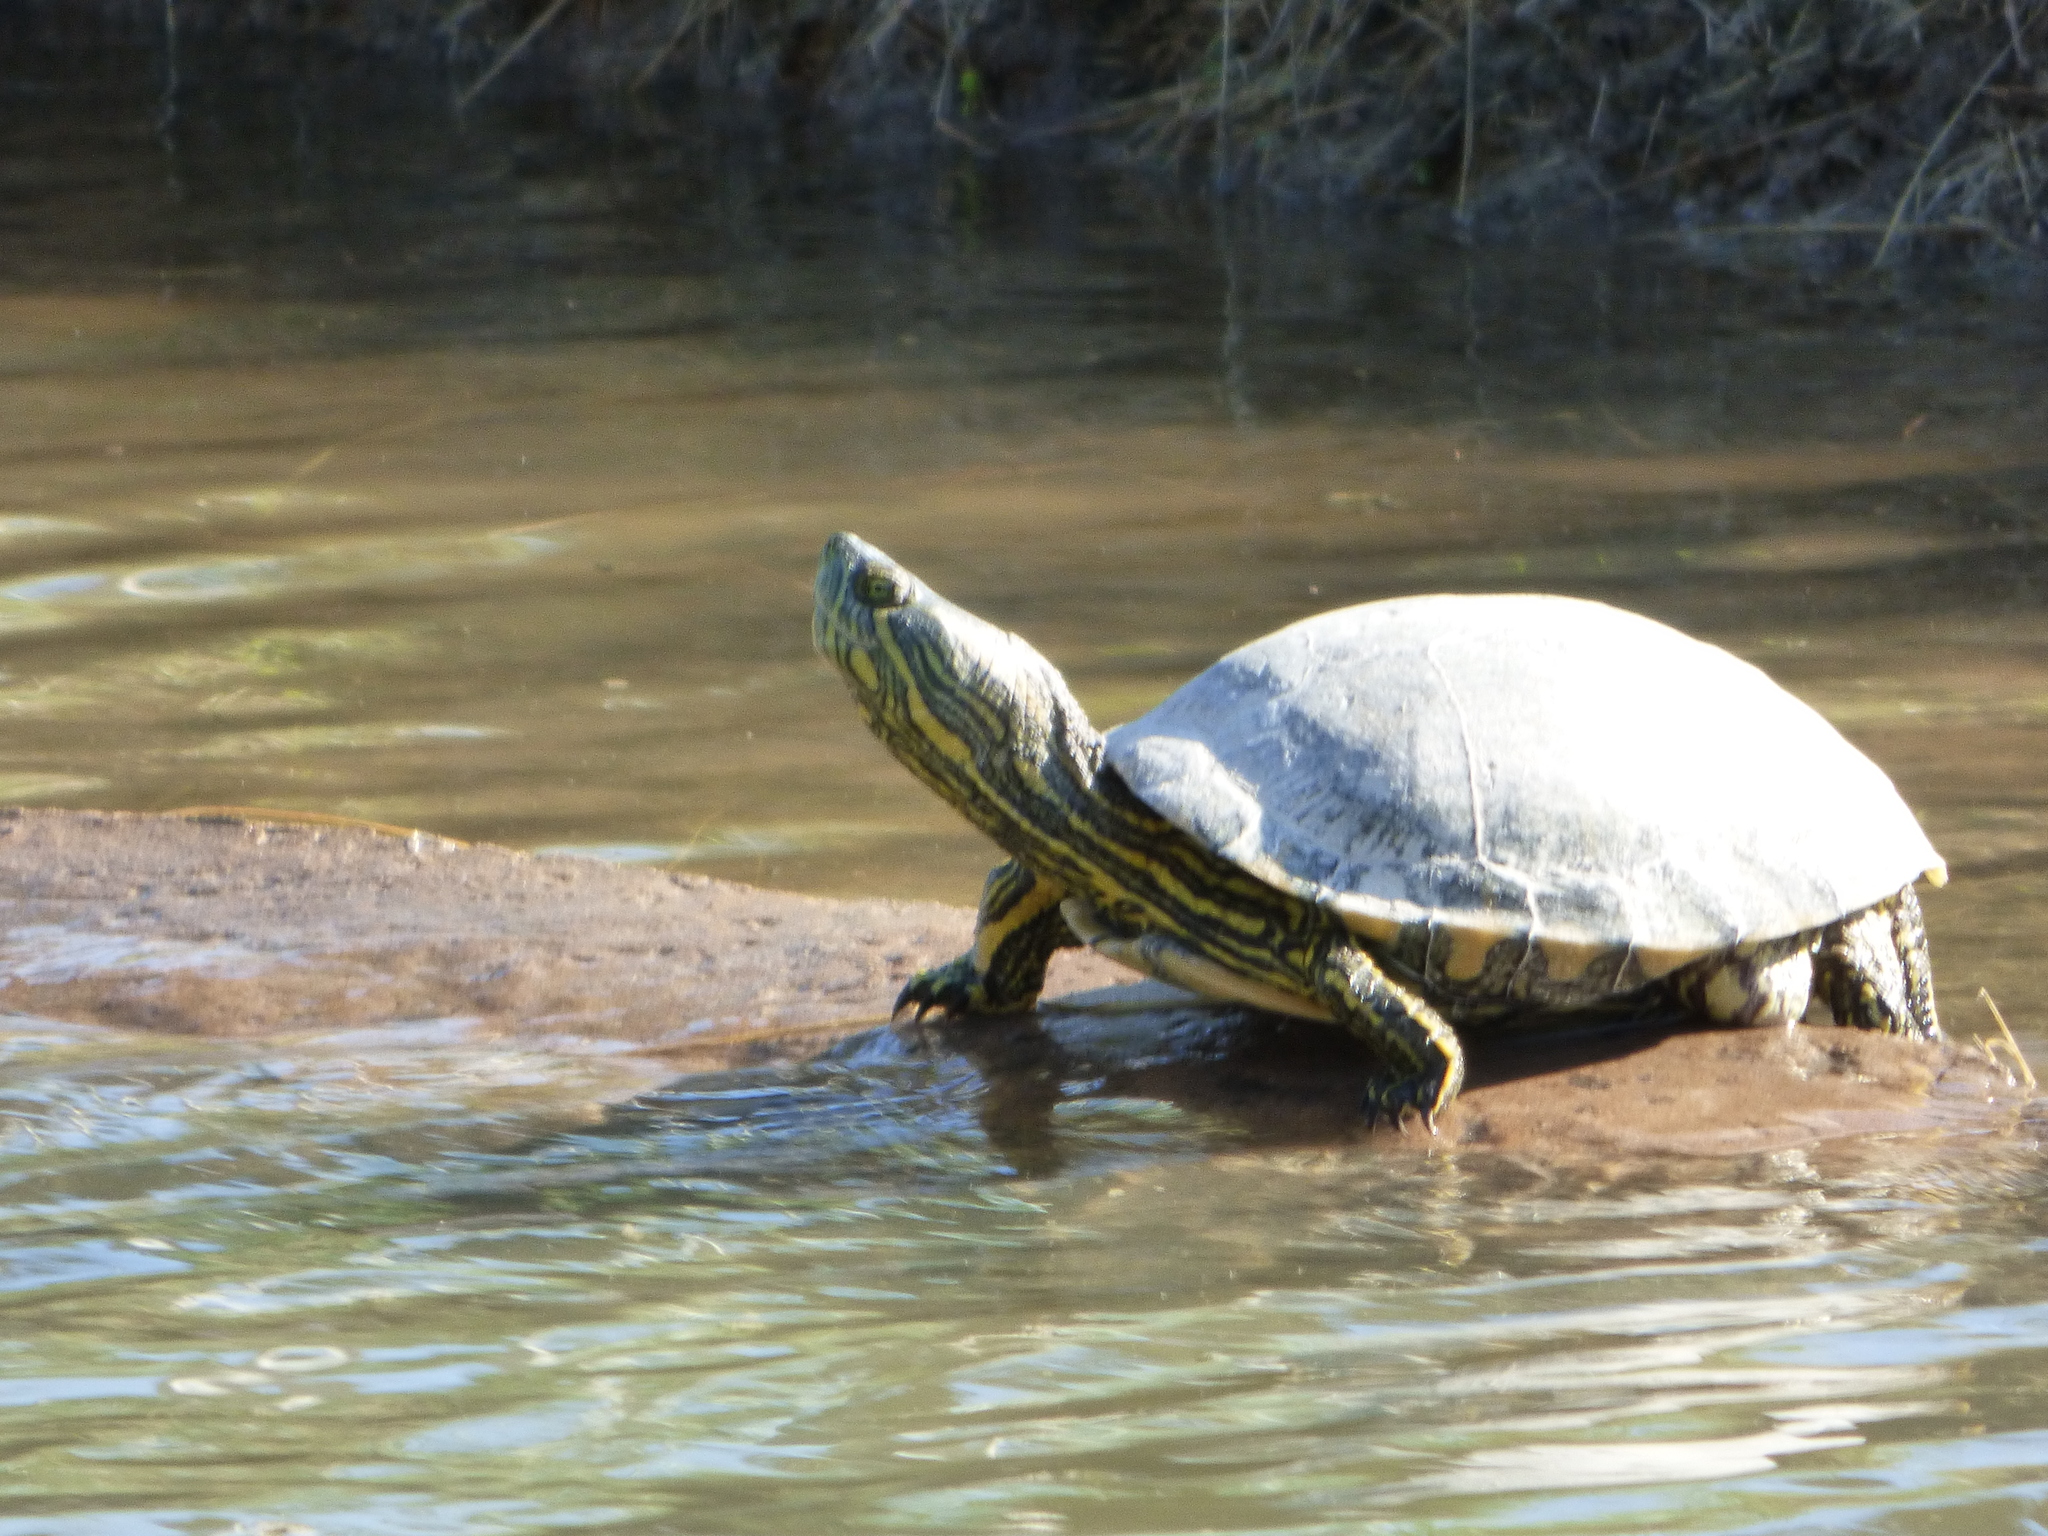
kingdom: Animalia
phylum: Chordata
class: Testudines
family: Emydidae
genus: Trachemys
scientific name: Trachemys dorbigni
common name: Black-bellied slider
